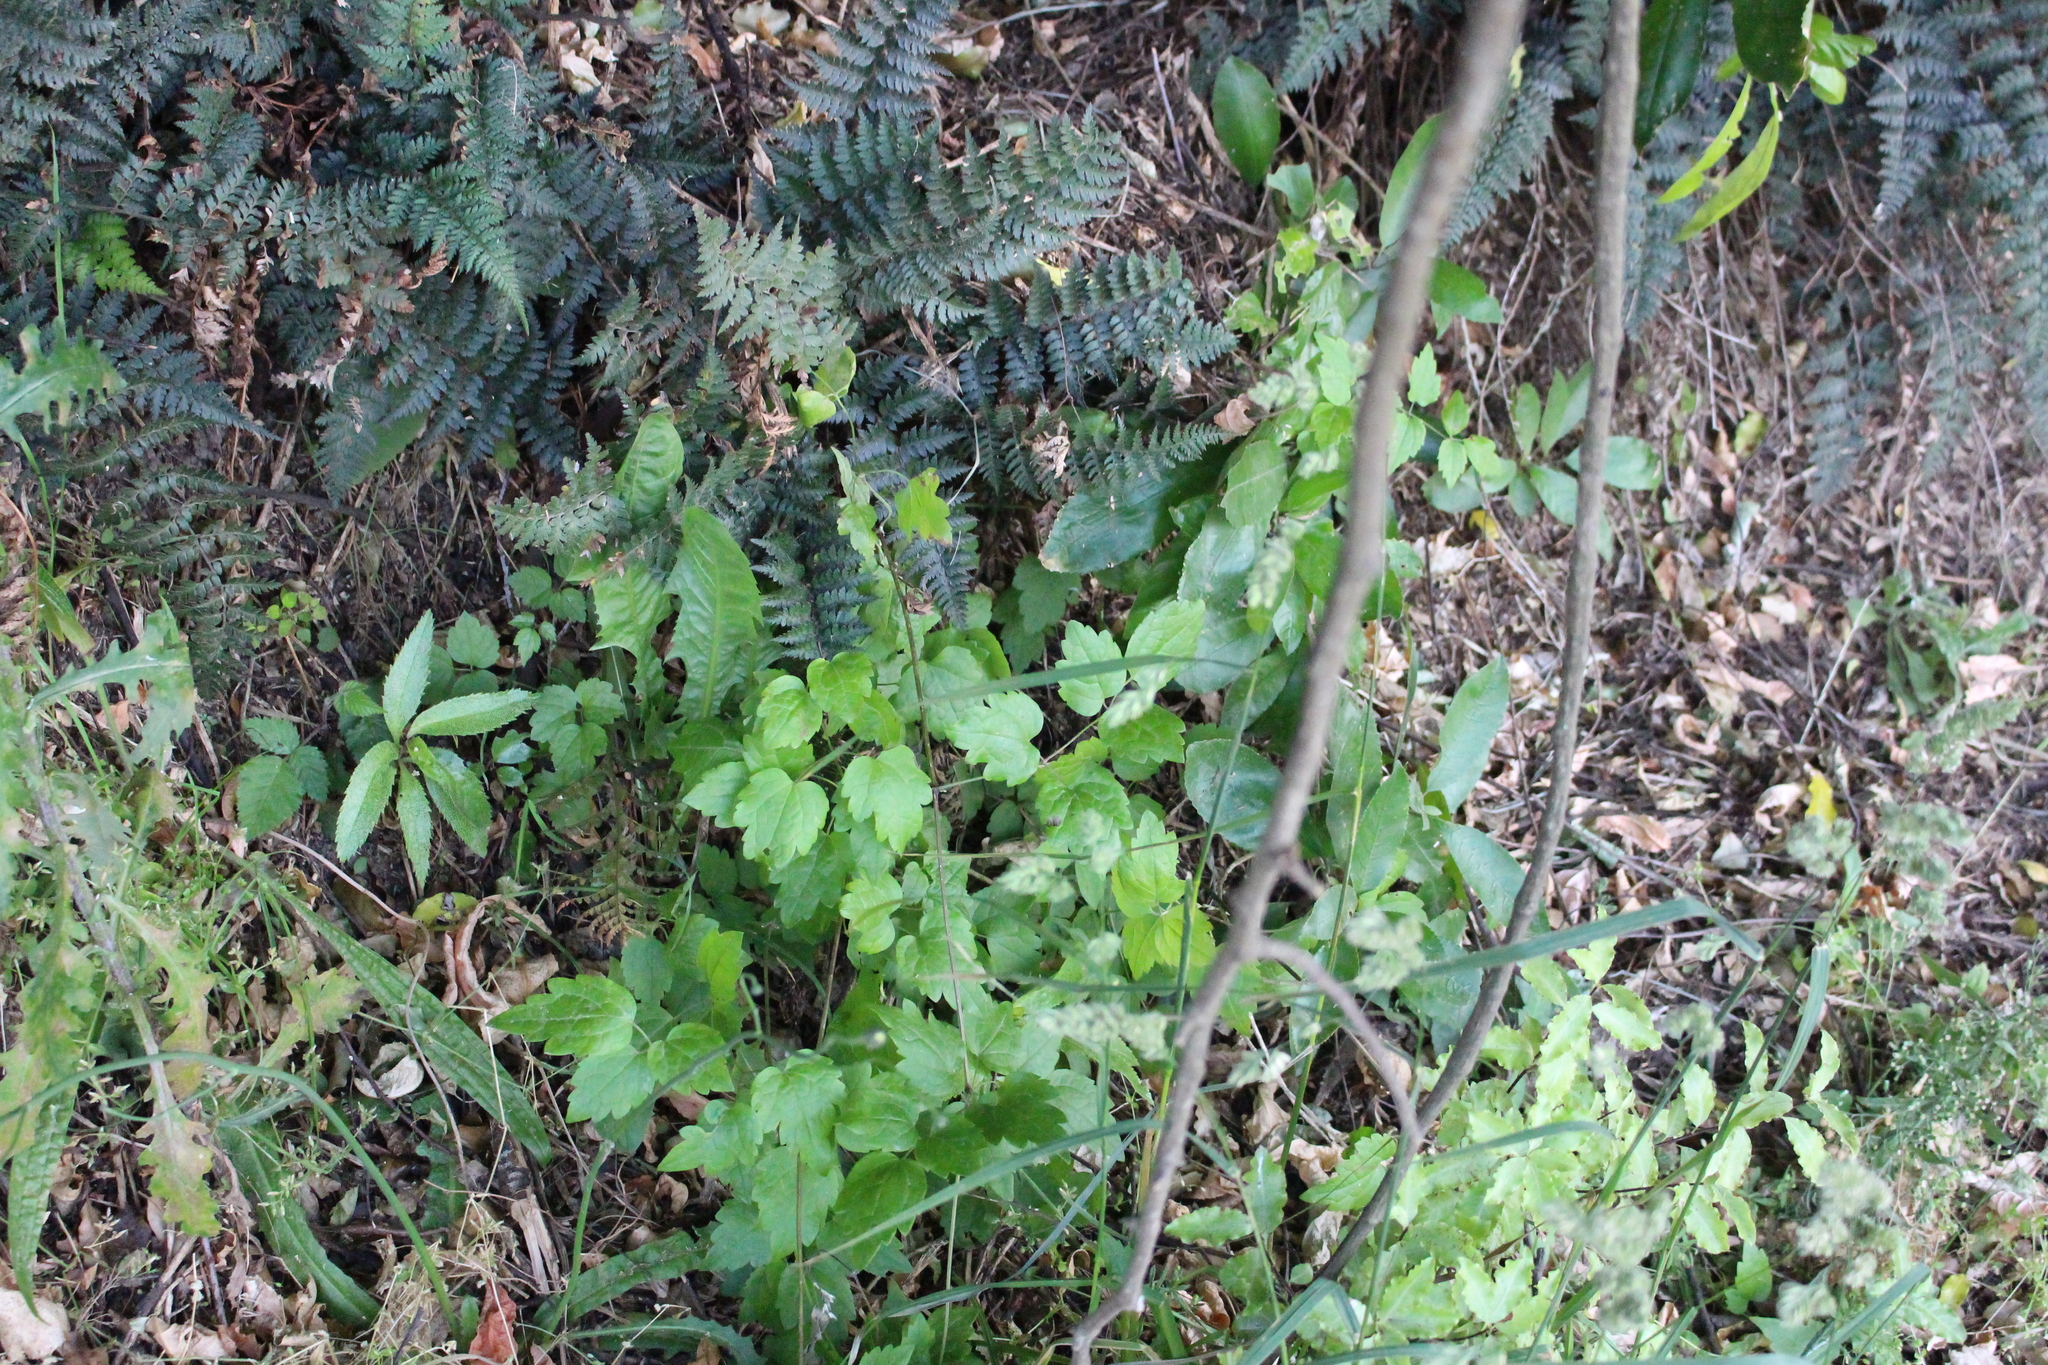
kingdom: Plantae
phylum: Tracheophyta
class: Magnoliopsida
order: Ranunculales
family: Ranunculaceae
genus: Clematis
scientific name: Clematis vitalba
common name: Evergreen clematis
